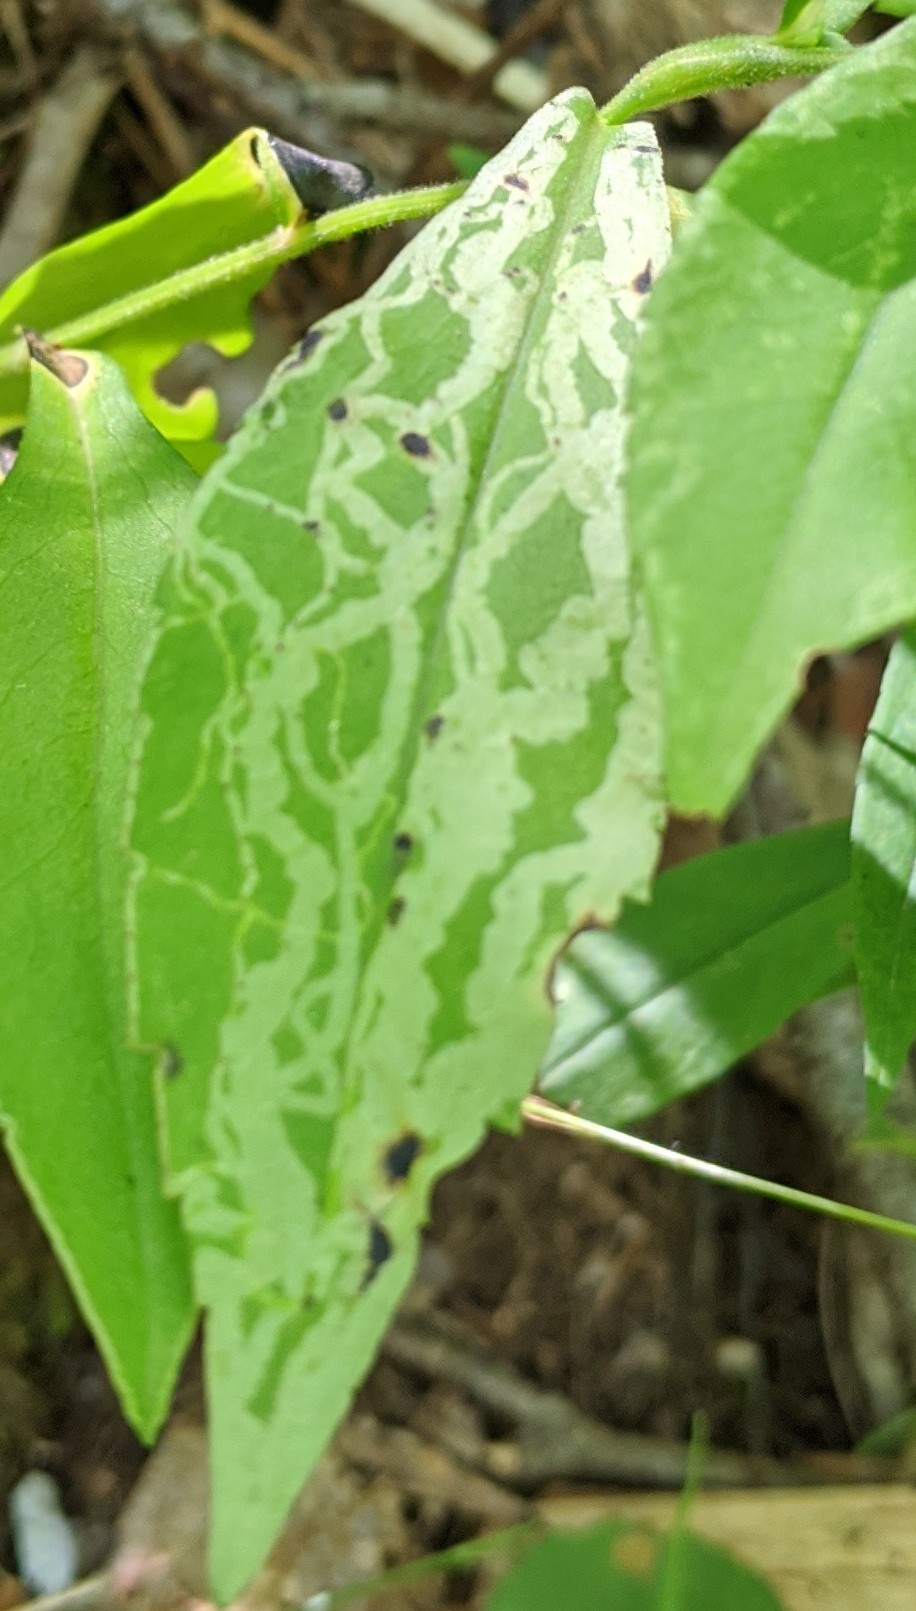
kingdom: Animalia
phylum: Arthropoda
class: Insecta
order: Diptera
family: Agromyzidae
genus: Ophiomyia
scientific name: Ophiomyia parda
